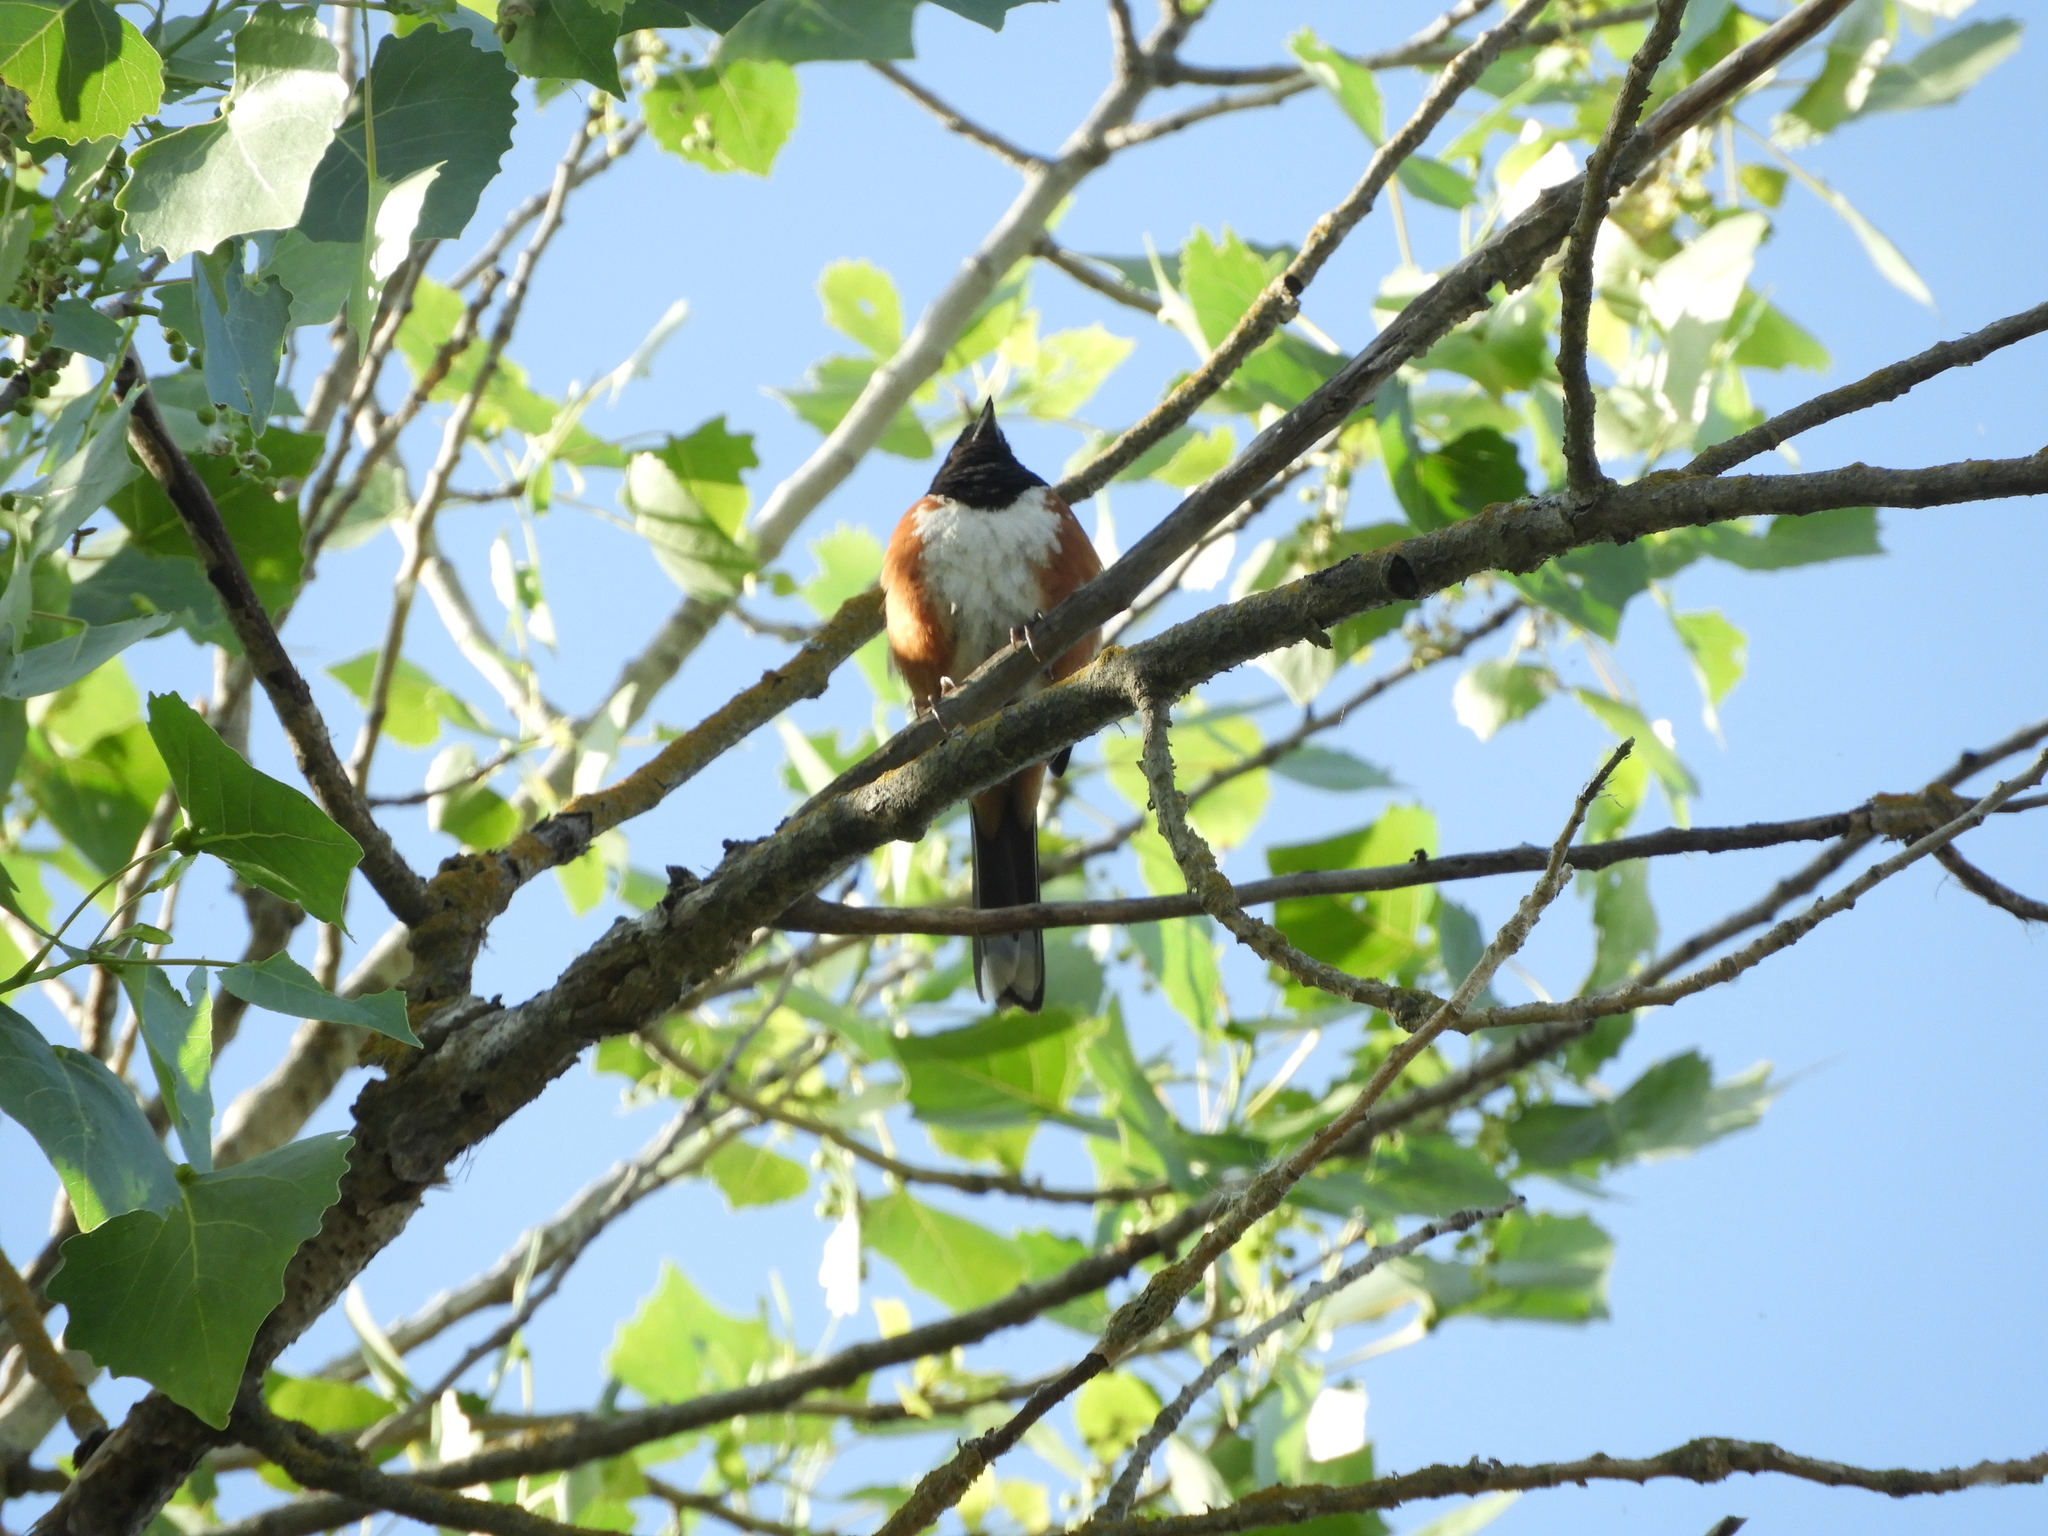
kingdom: Animalia
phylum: Chordata
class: Aves
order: Passeriformes
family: Passerellidae
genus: Pipilo
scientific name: Pipilo maculatus
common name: Spotted towhee
